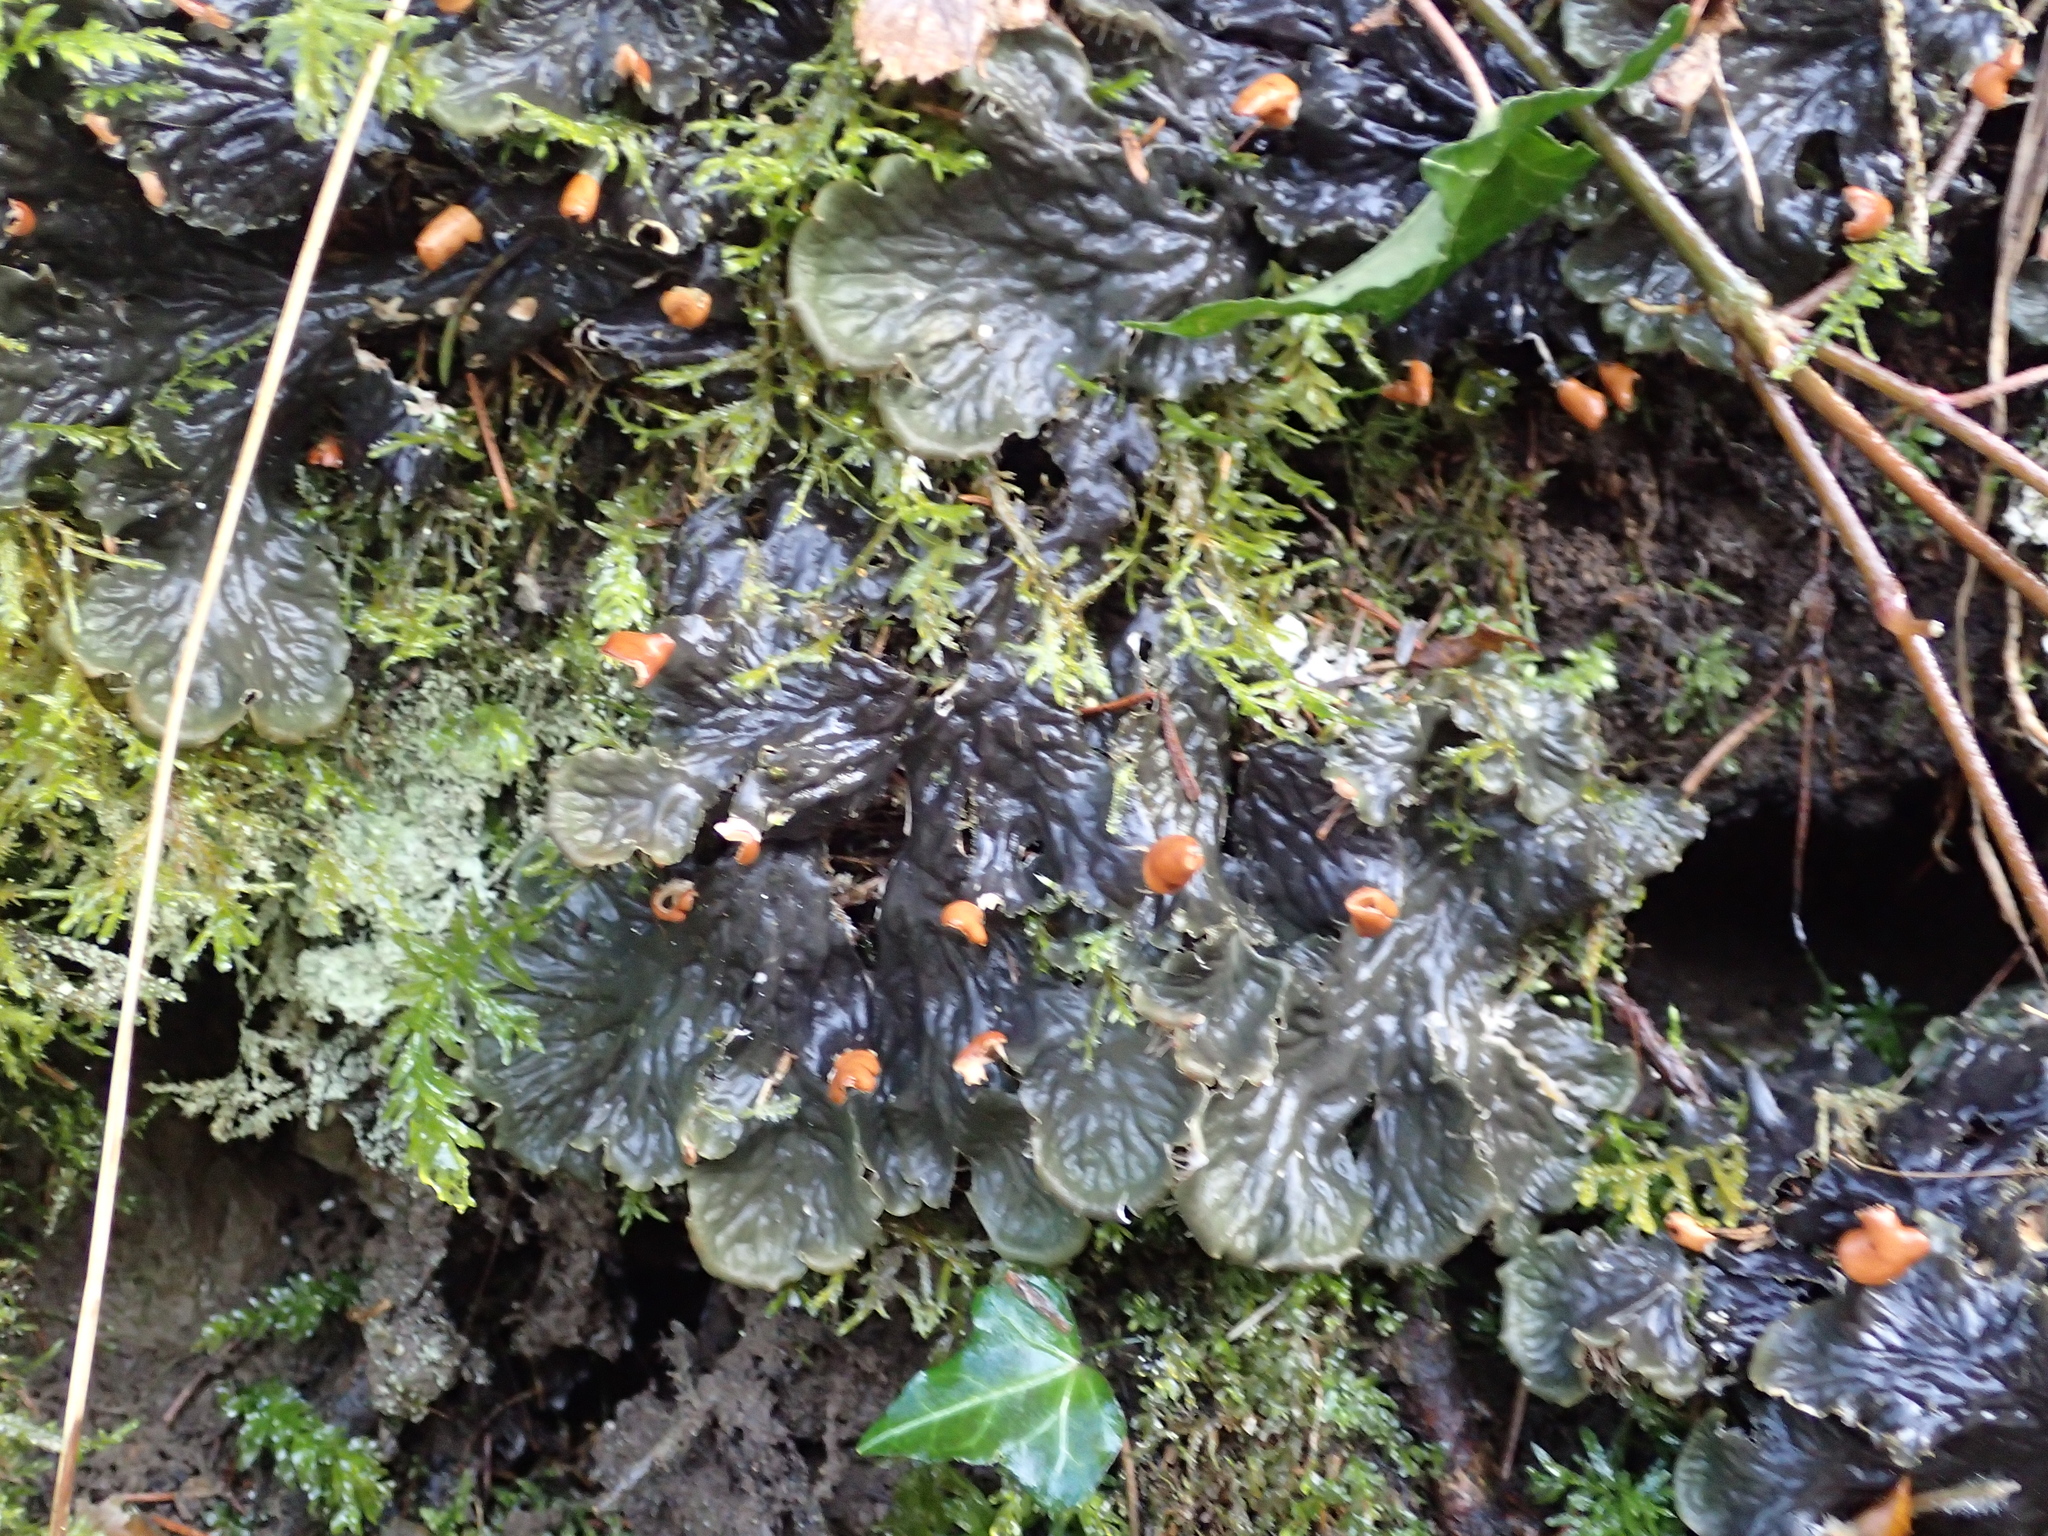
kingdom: Fungi
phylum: Ascomycota
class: Lecanoromycetes
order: Peltigerales
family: Peltigeraceae
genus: Peltigera
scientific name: Peltigera
